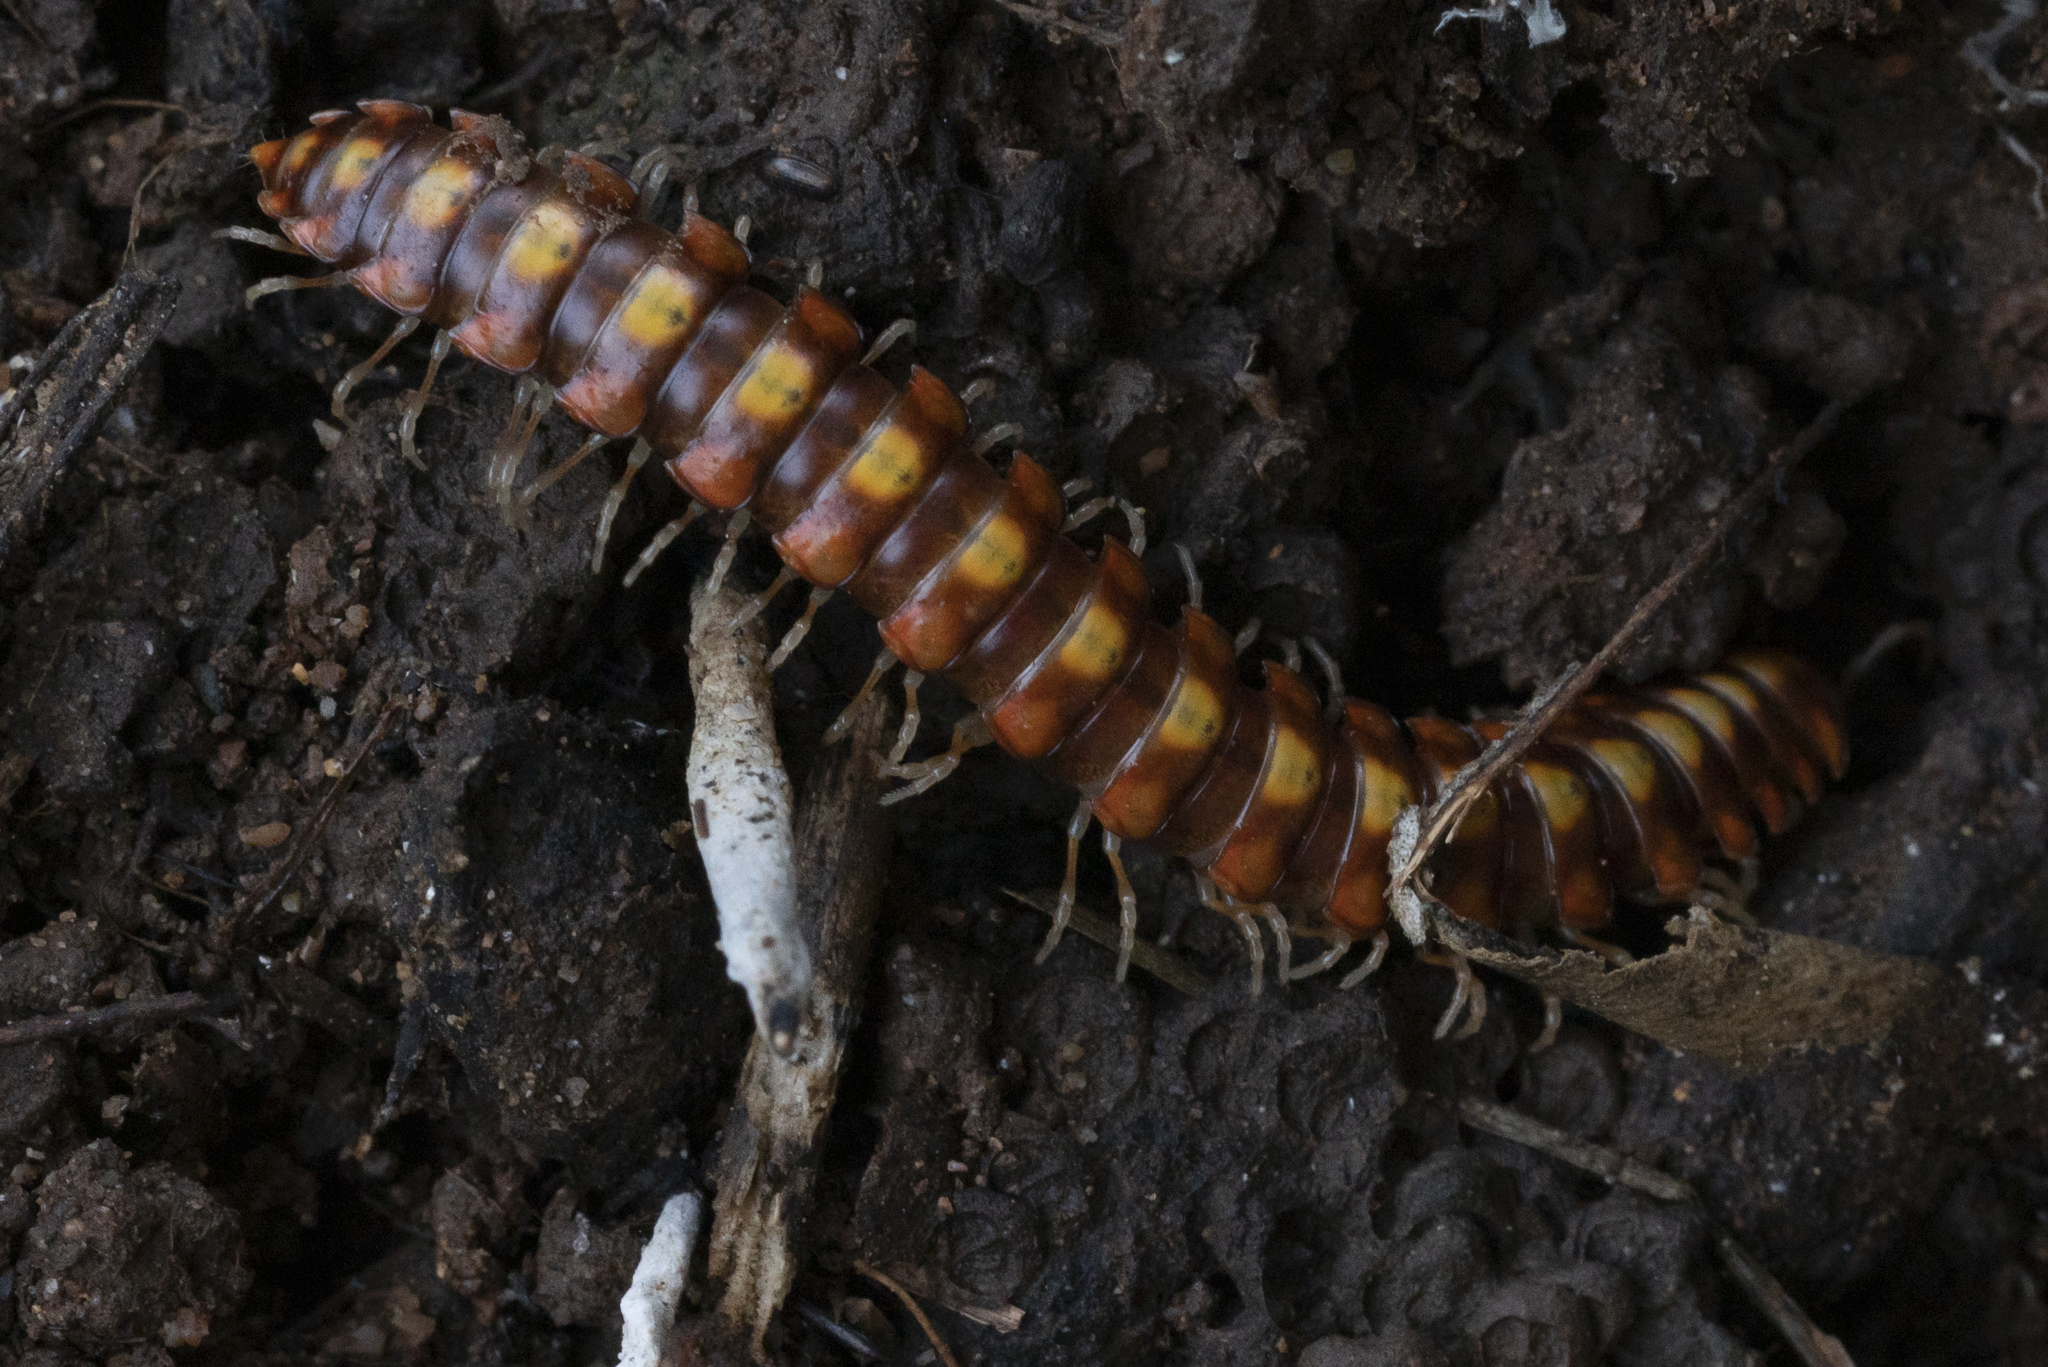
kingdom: Animalia
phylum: Arthropoda
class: Diplopoda
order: Polydesmida
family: Xystodesmidae
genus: Melaphe
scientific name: Melaphe vestita
